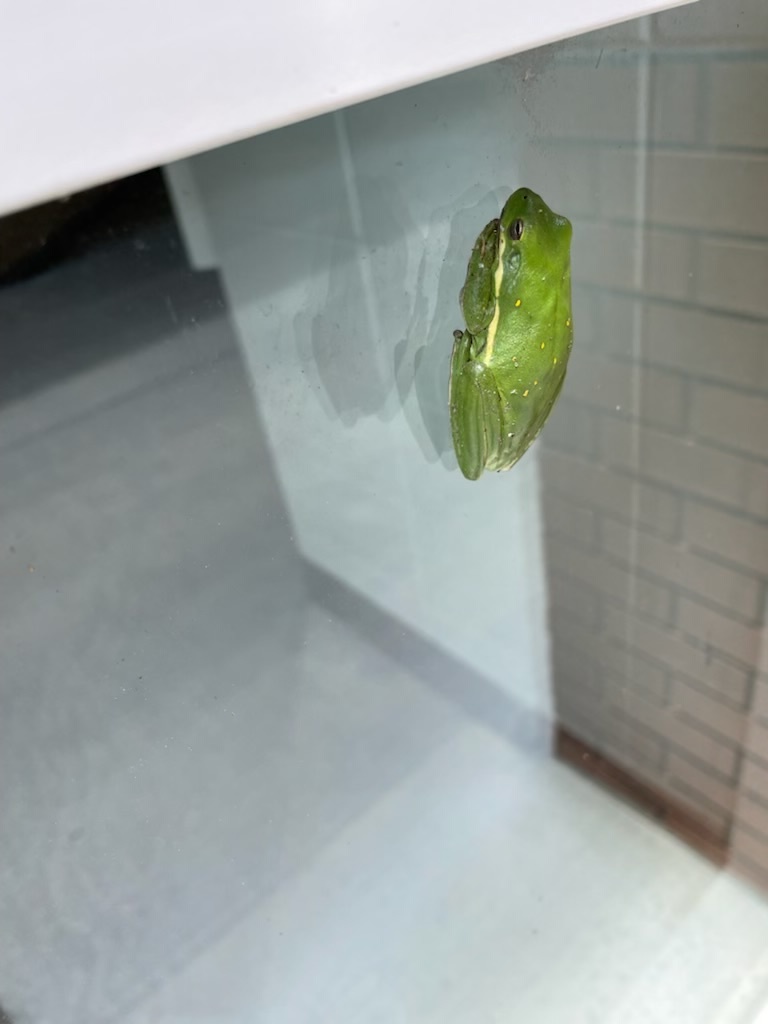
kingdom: Animalia
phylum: Chordata
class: Amphibia
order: Anura
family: Hylidae
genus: Dryophytes
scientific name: Dryophytes cinereus
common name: Green treefrog
